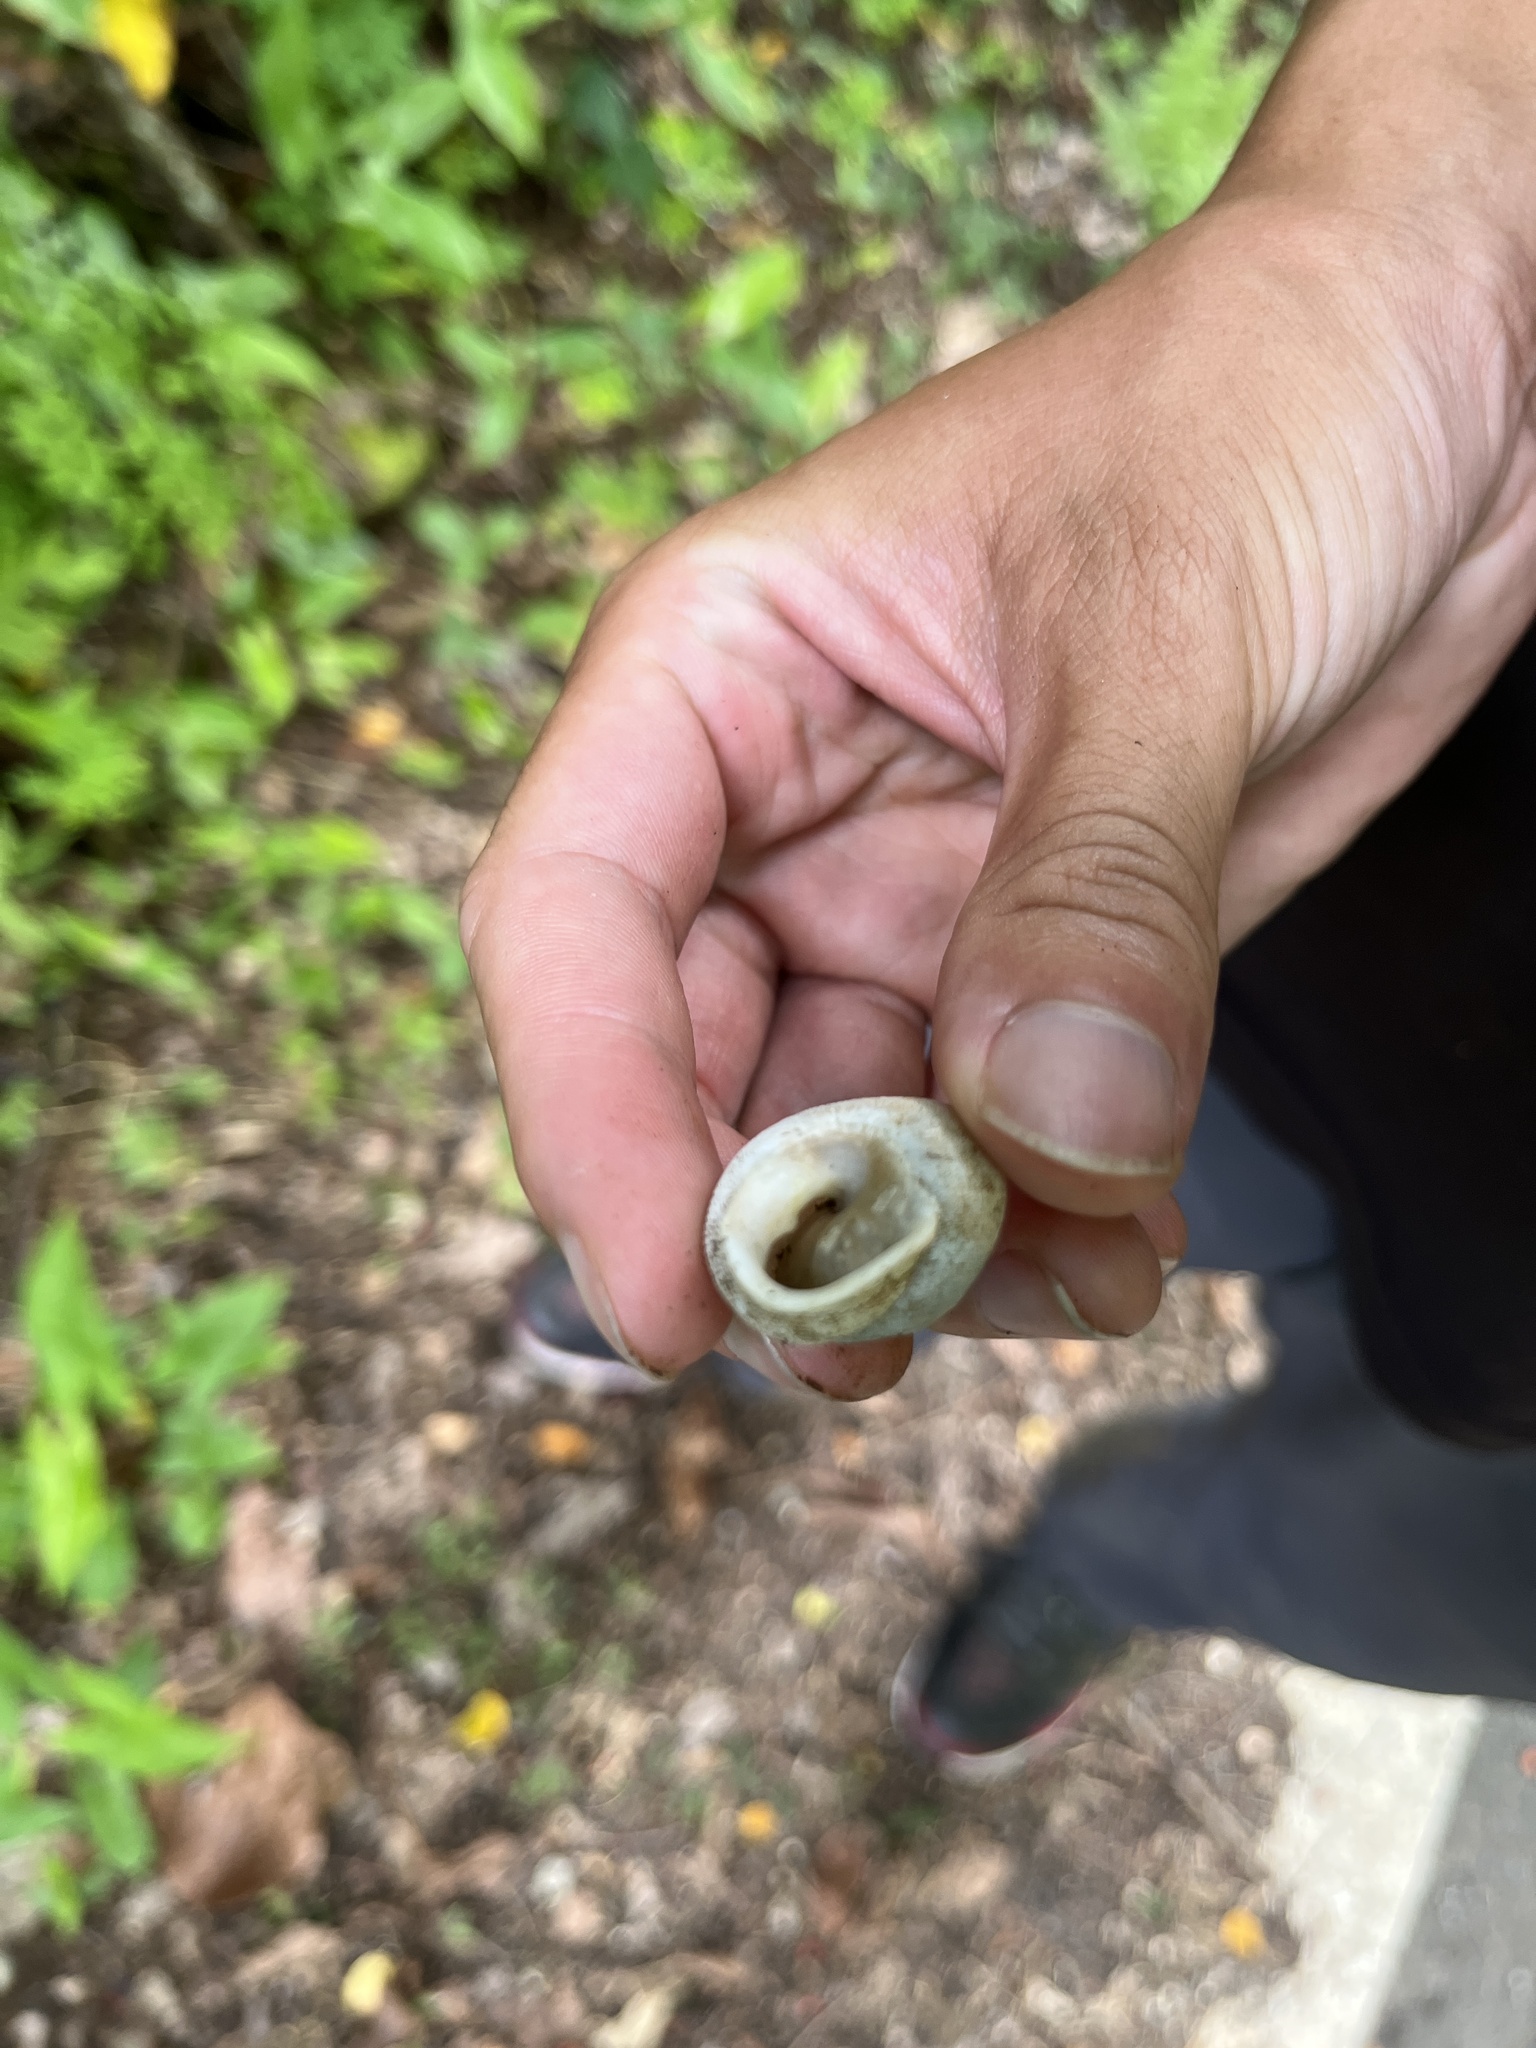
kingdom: Animalia
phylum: Mollusca
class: Gastropoda
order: Stylommatophora
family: Sagdidae
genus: Granodomus
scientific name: Granodomus lima
